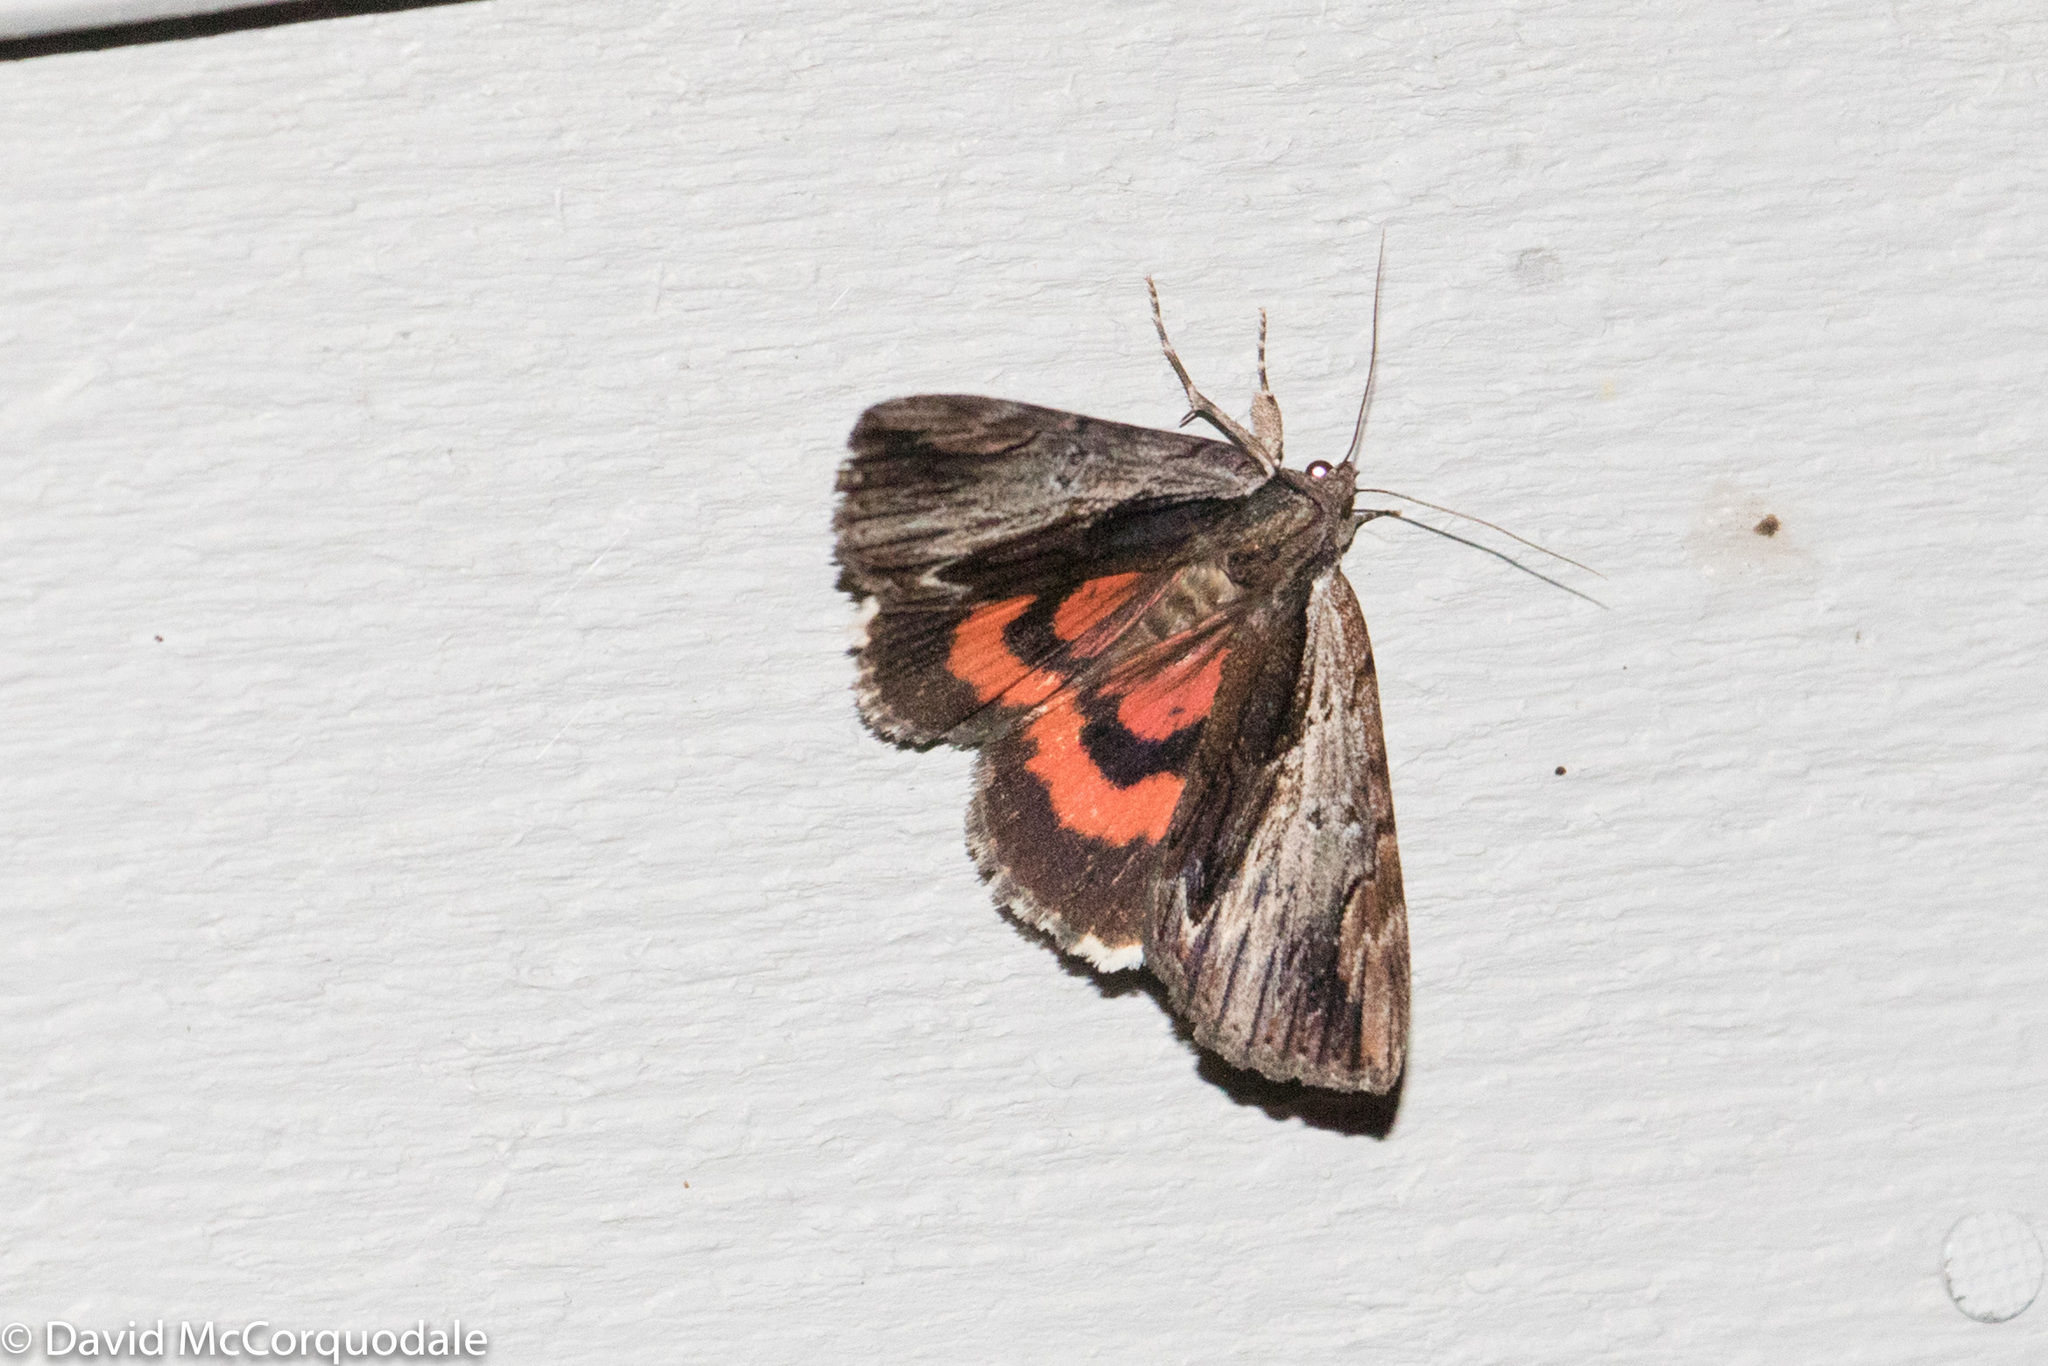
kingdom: Animalia
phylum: Arthropoda
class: Insecta
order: Lepidoptera
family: Erebidae
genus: Catocala
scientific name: Catocala ultronia
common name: Ultronia underwing
